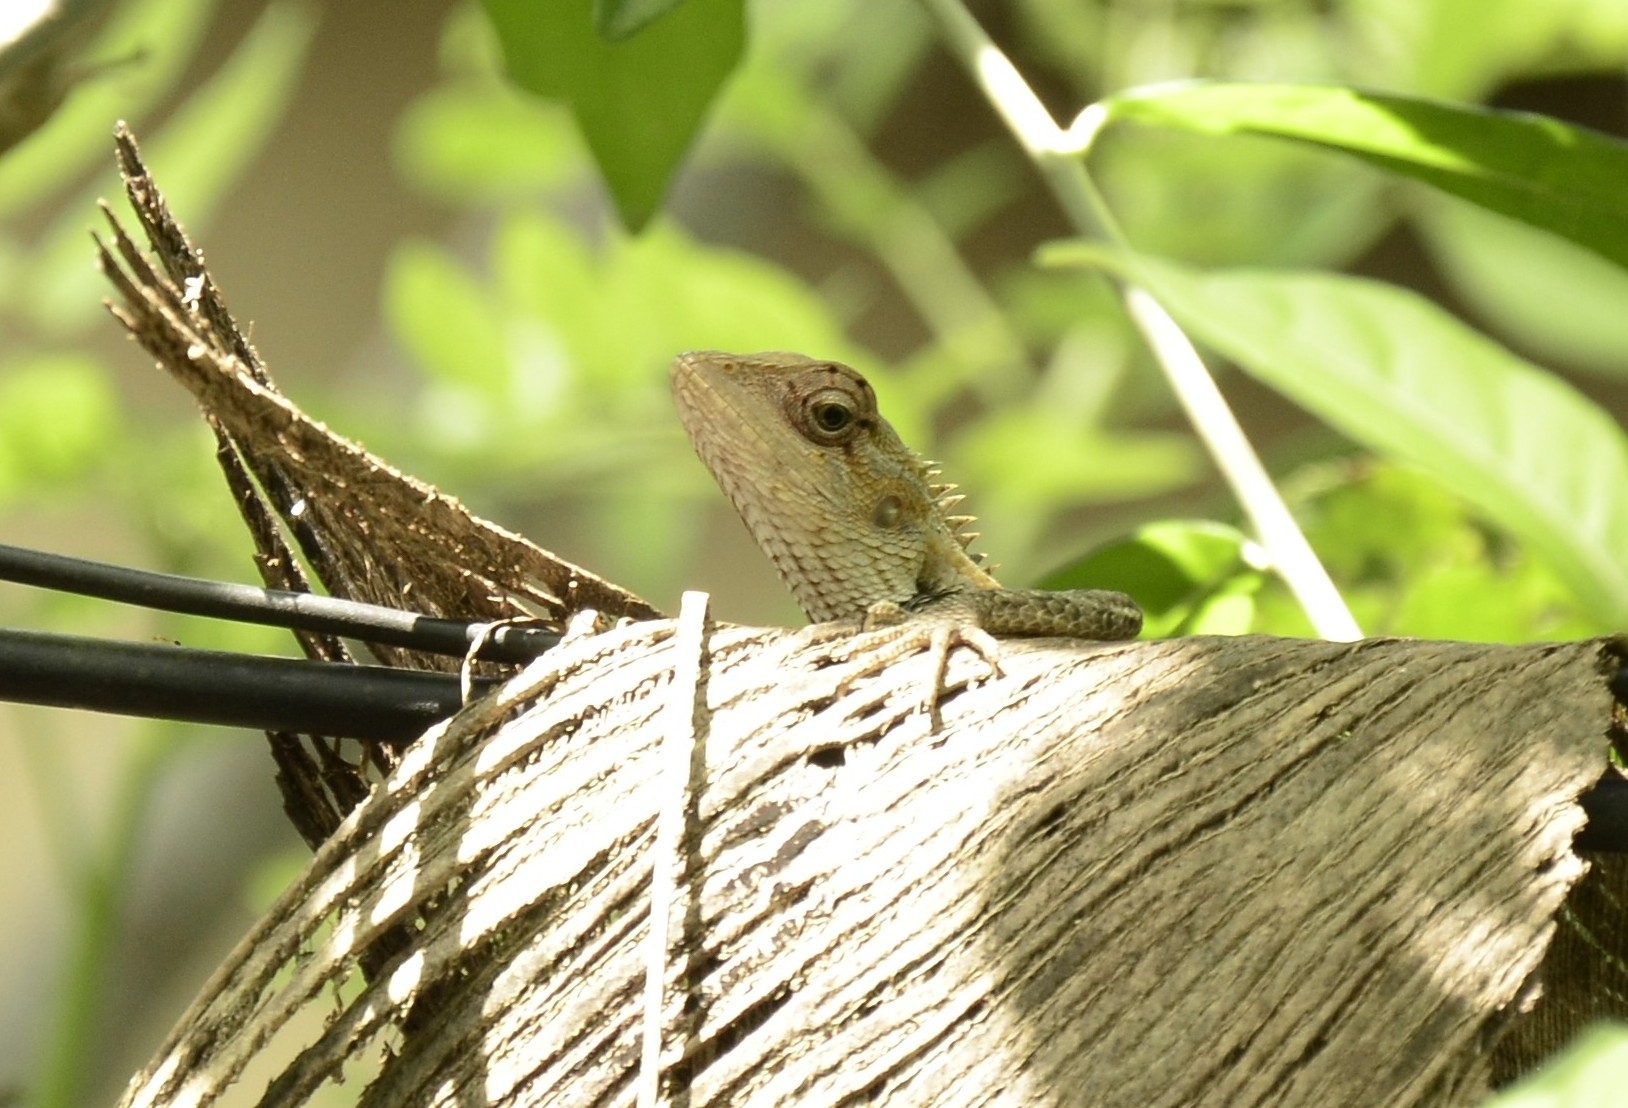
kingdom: Animalia
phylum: Chordata
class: Squamata
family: Agamidae
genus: Calotes
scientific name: Calotes versicolor
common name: Oriental garden lizard
